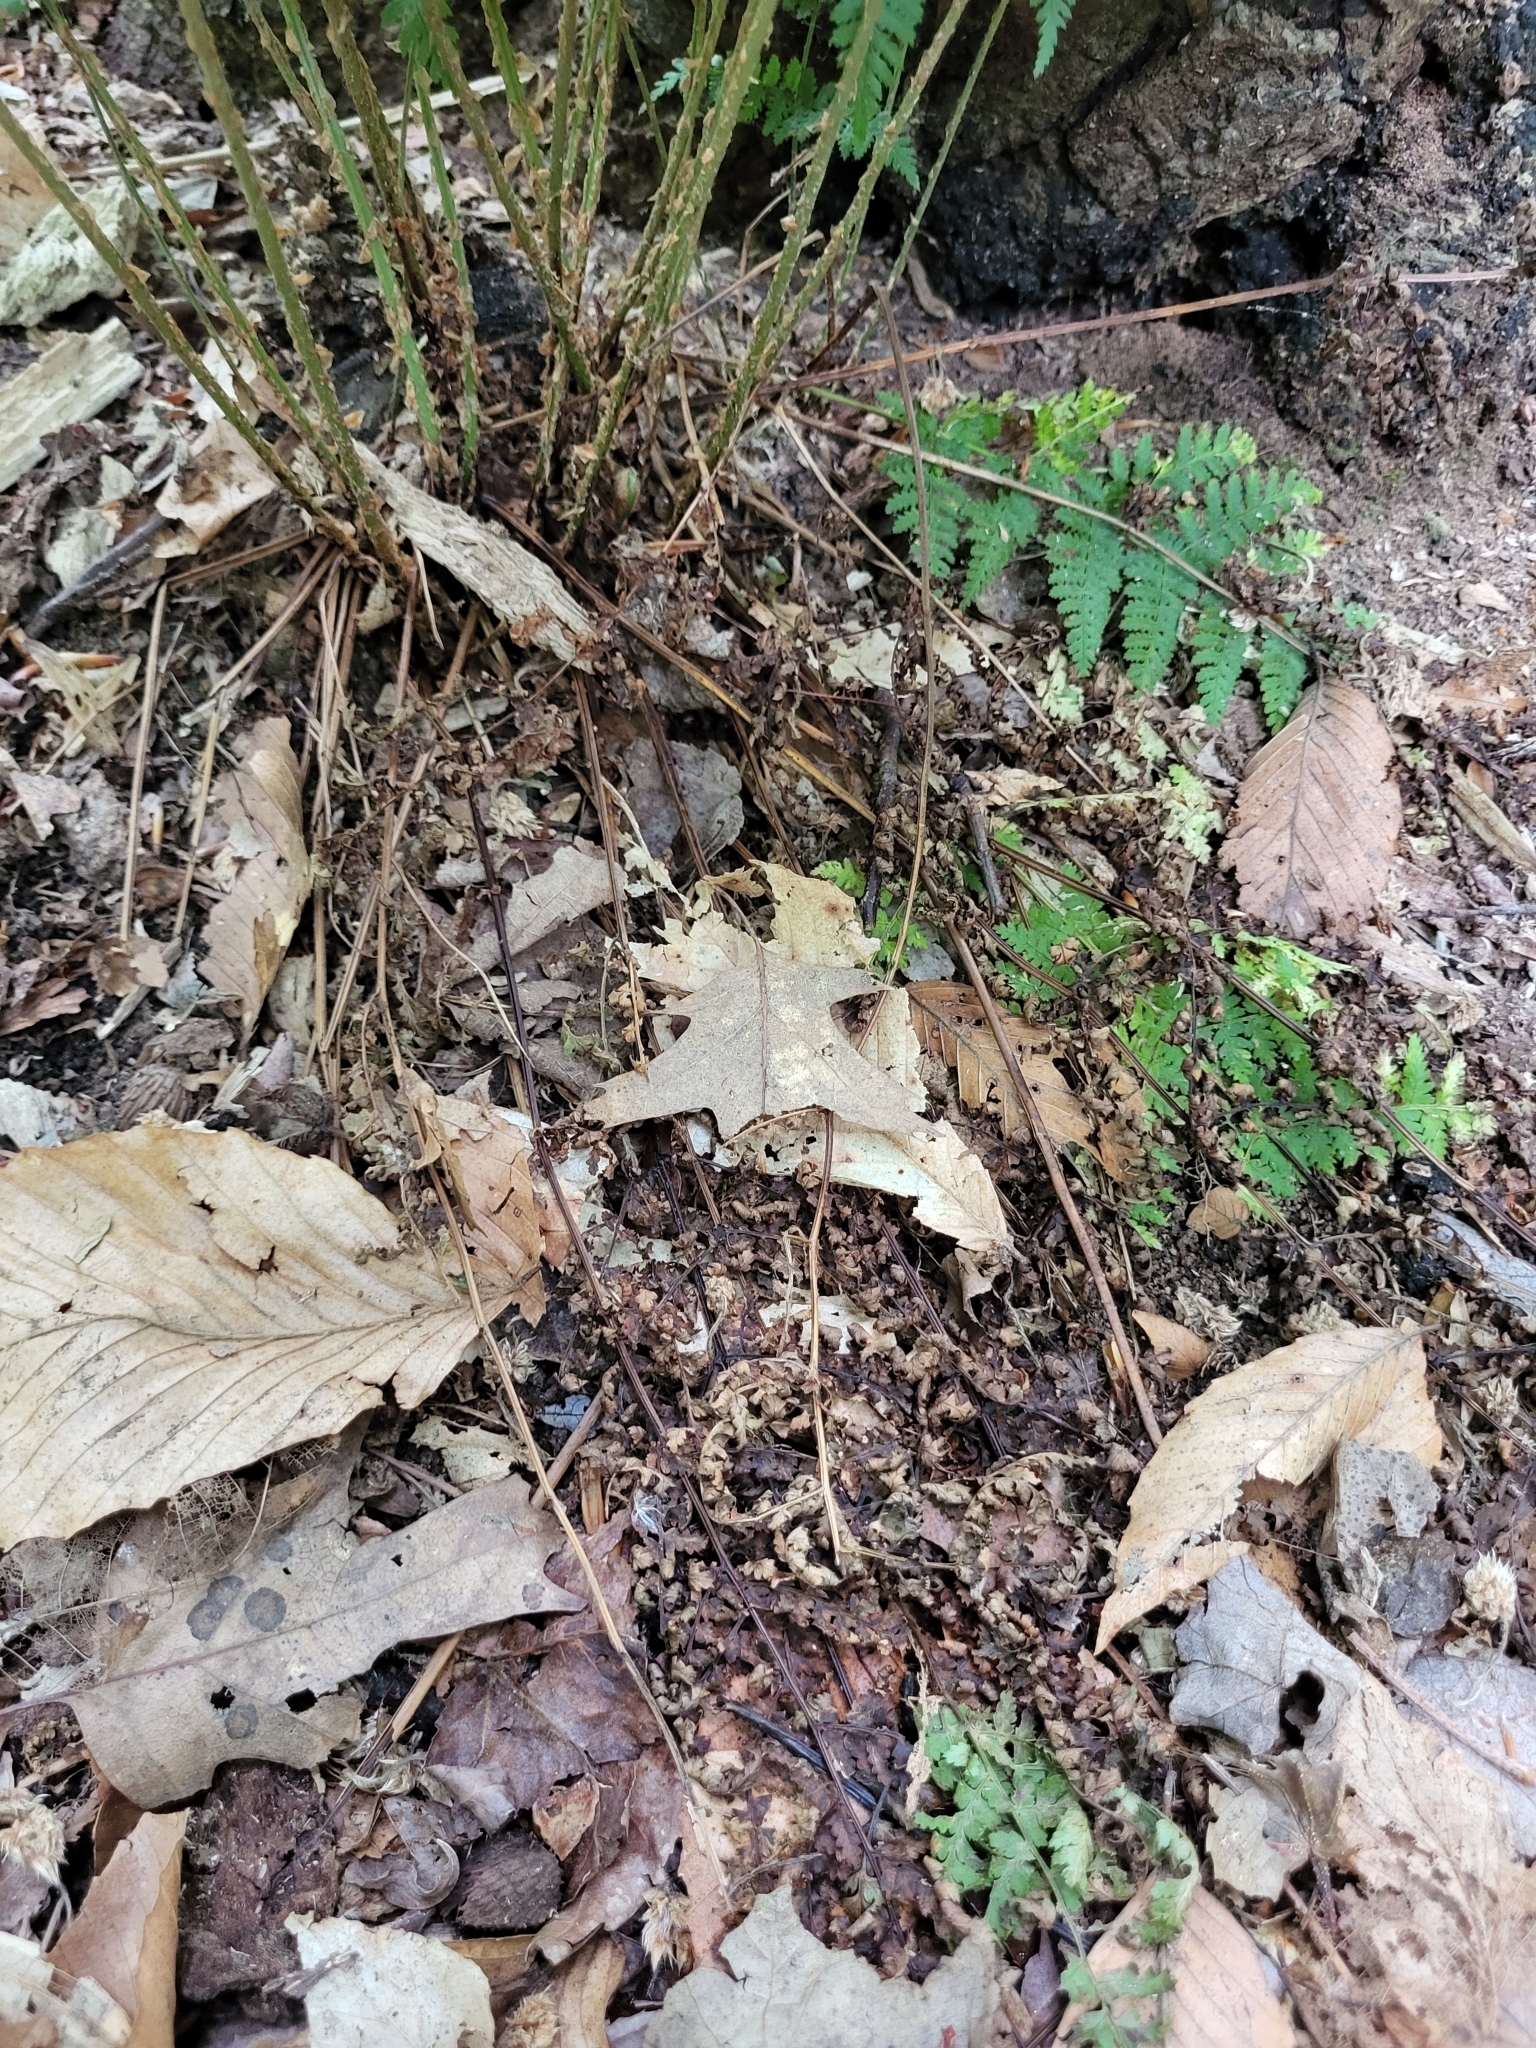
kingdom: Plantae
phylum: Tracheophyta
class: Polypodiopsida
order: Polypodiales
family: Dryopteridaceae
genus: Dryopteris
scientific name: Dryopteris intermedia
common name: Evergreen wood fern
